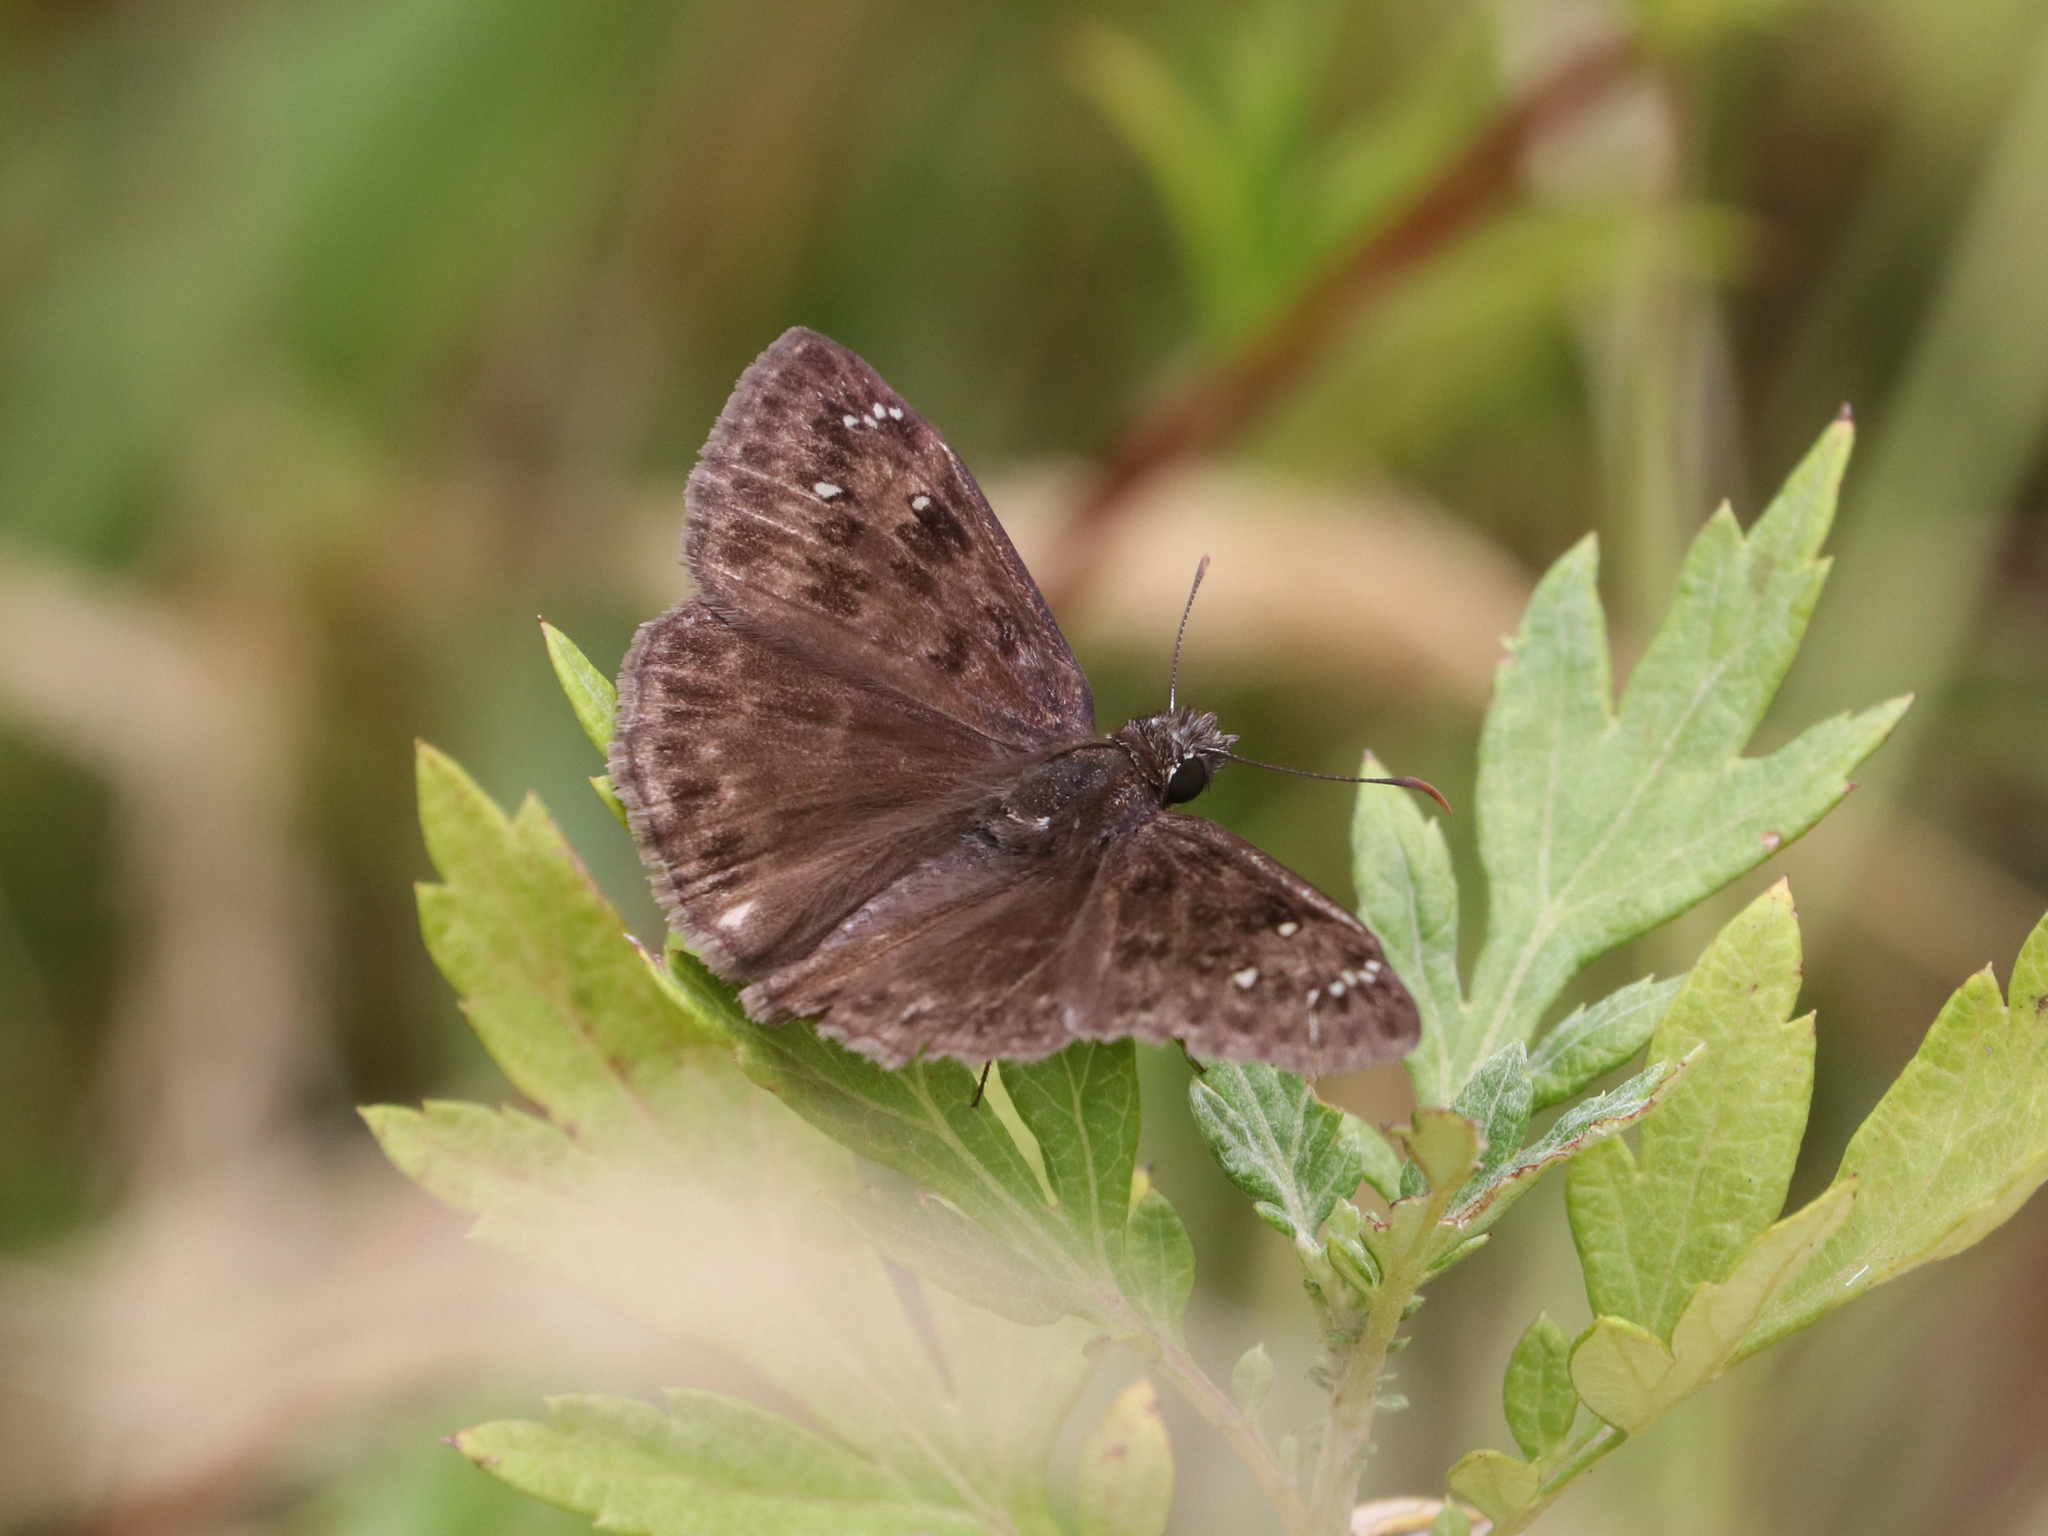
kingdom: Animalia
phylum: Arthropoda
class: Insecta
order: Lepidoptera
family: Hesperiidae
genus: Erynnis
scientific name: Erynnis horatius
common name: Horace's duskywing
